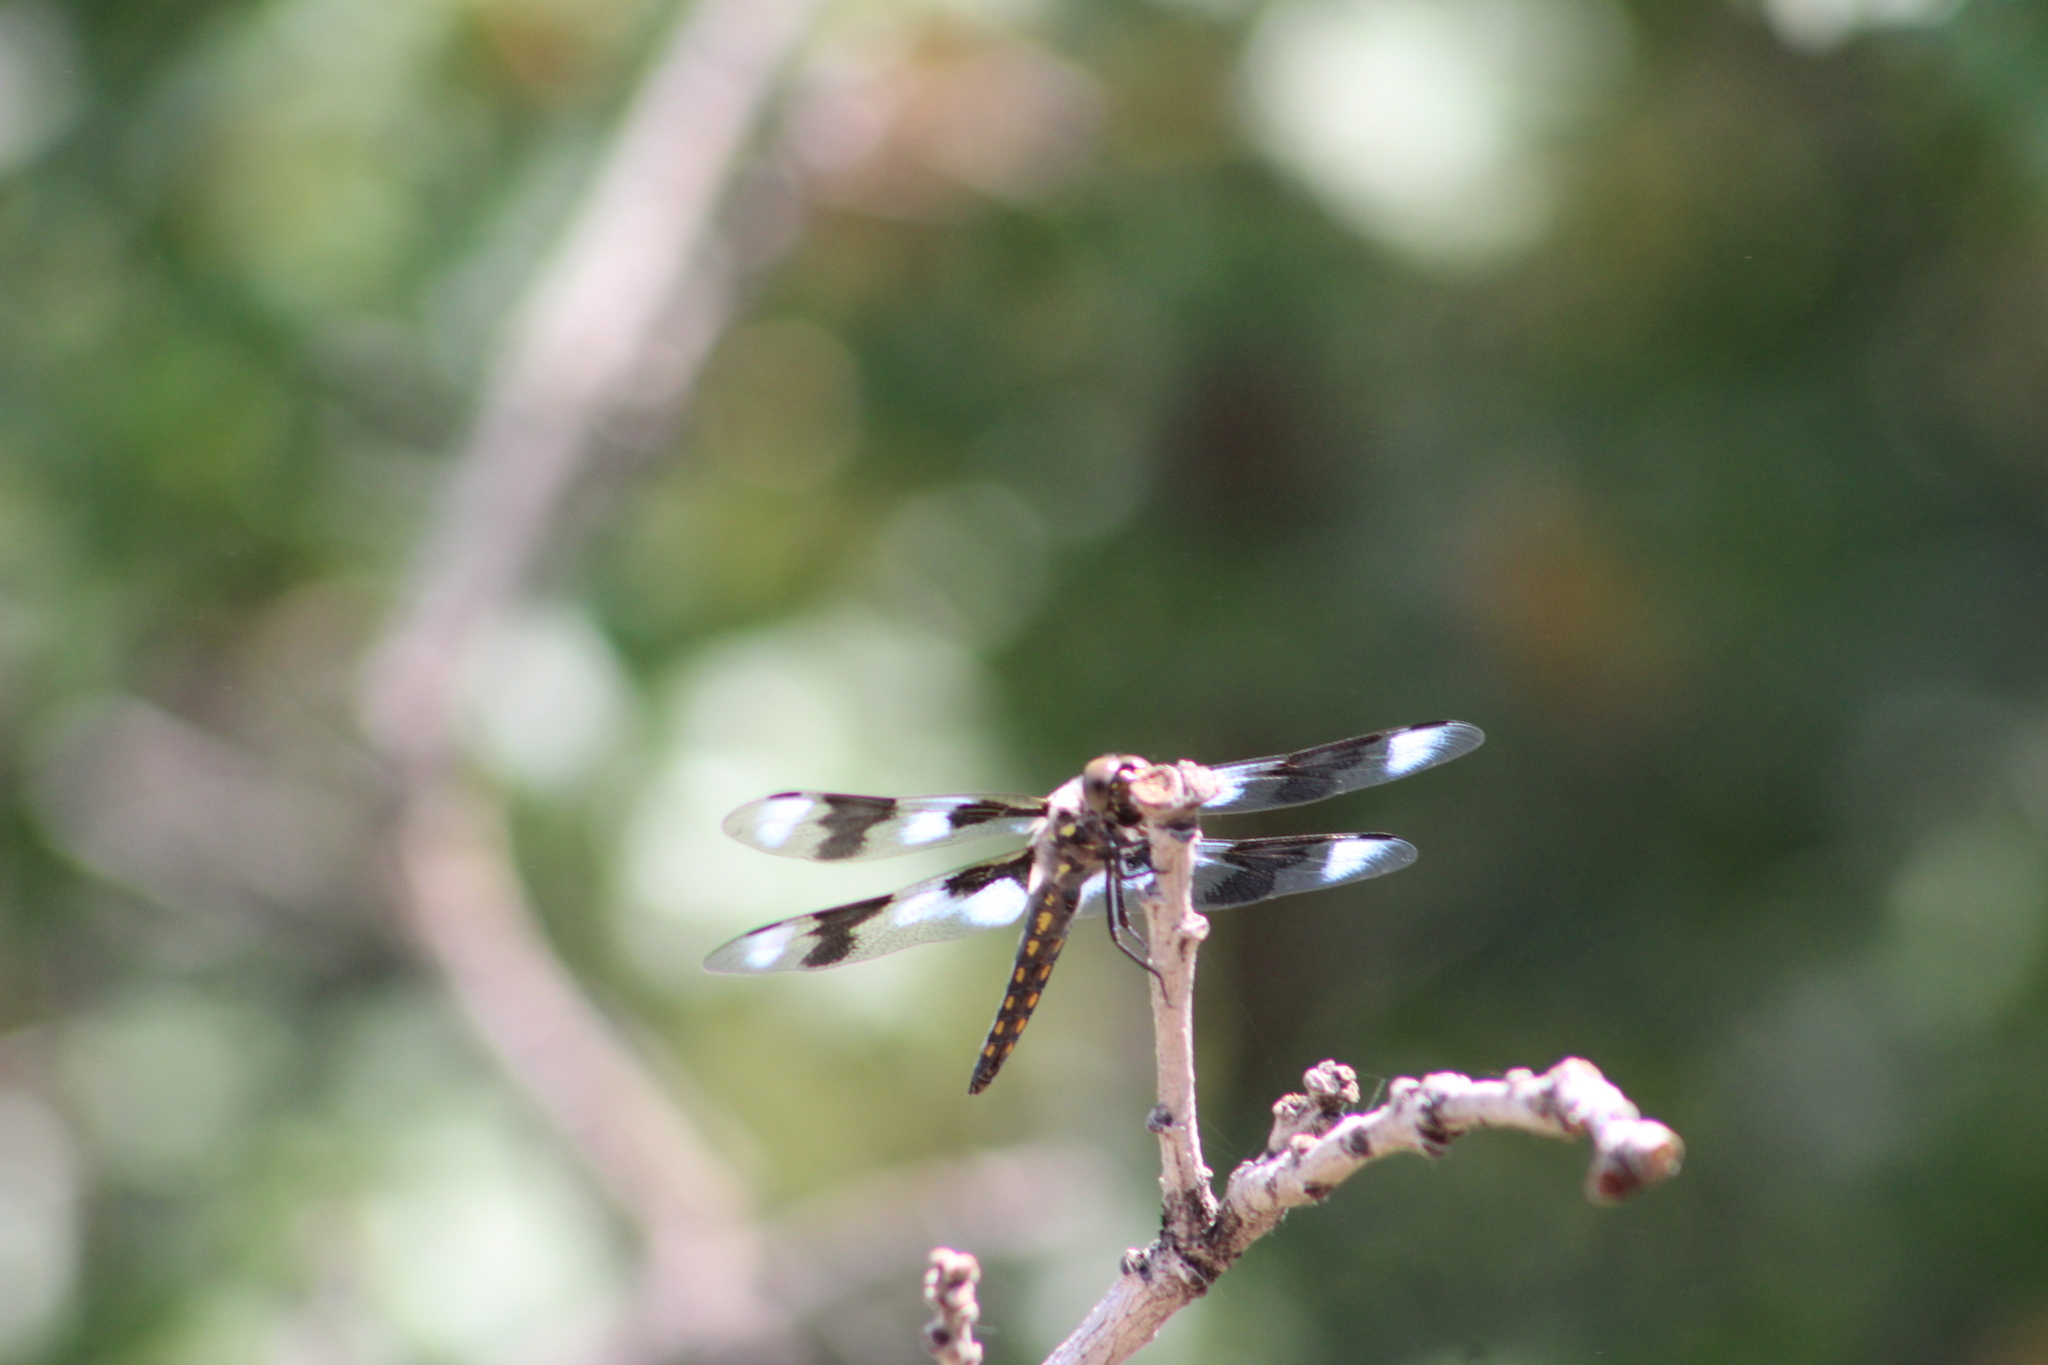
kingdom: Animalia
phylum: Arthropoda
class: Insecta
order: Odonata
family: Libellulidae
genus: Libellula
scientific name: Libellula forensis
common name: Eight-spotted skimmer
